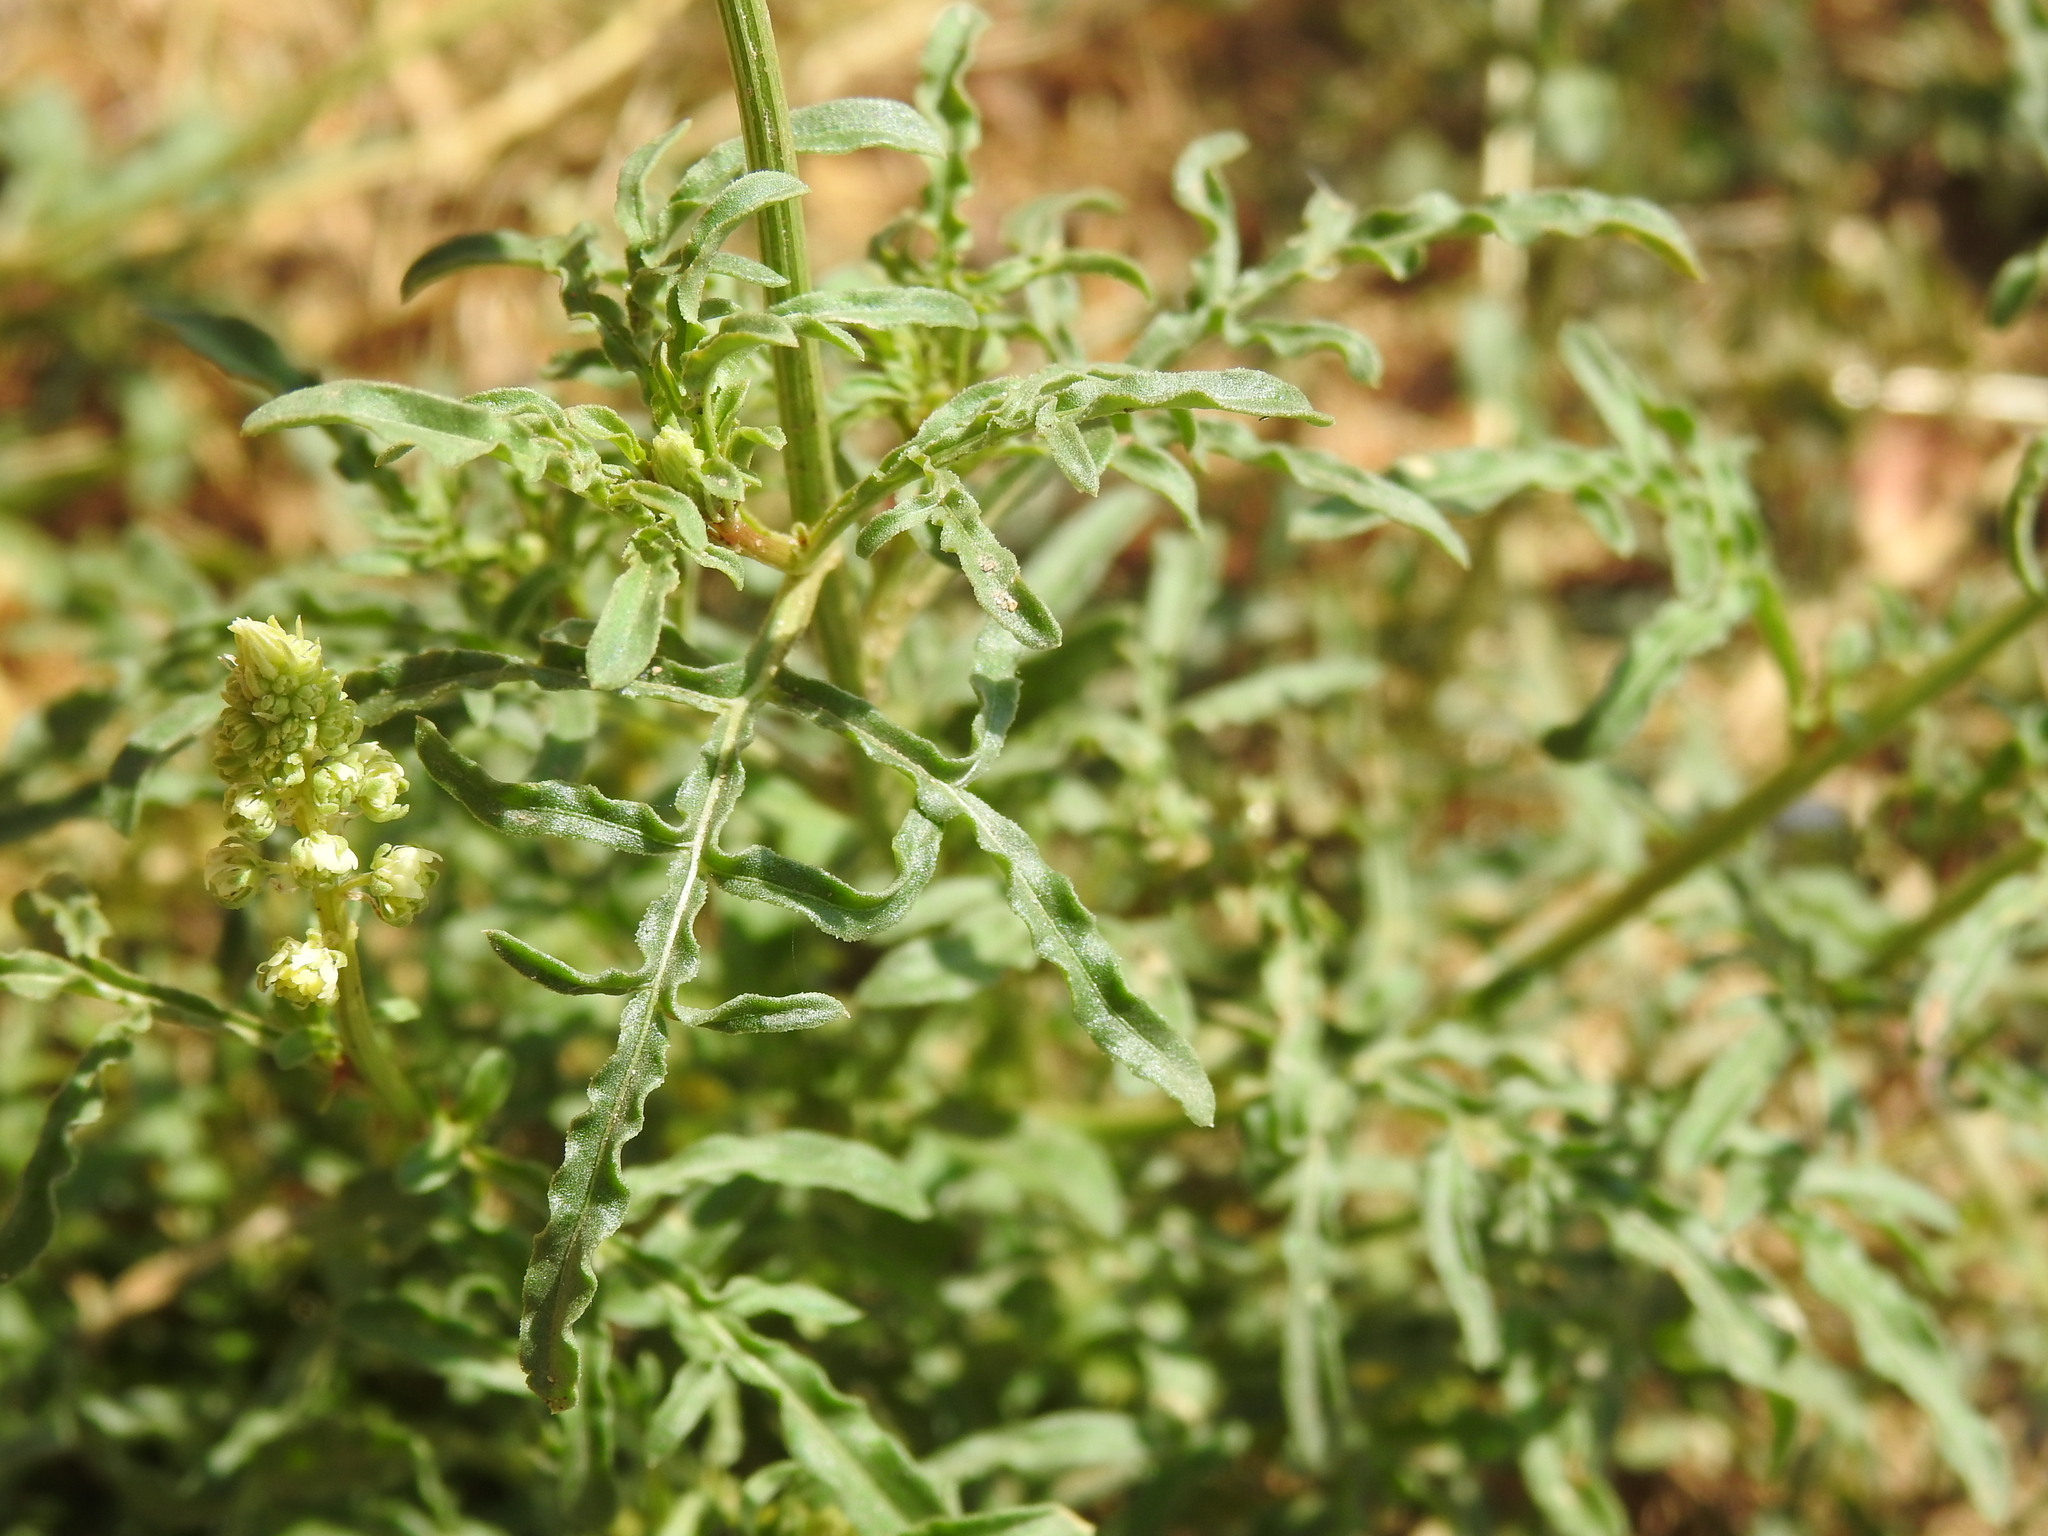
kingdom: Plantae
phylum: Tracheophyta
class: Magnoliopsida
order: Brassicales
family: Resedaceae
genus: Reseda
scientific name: Reseda lutea
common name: Wild mignonette
